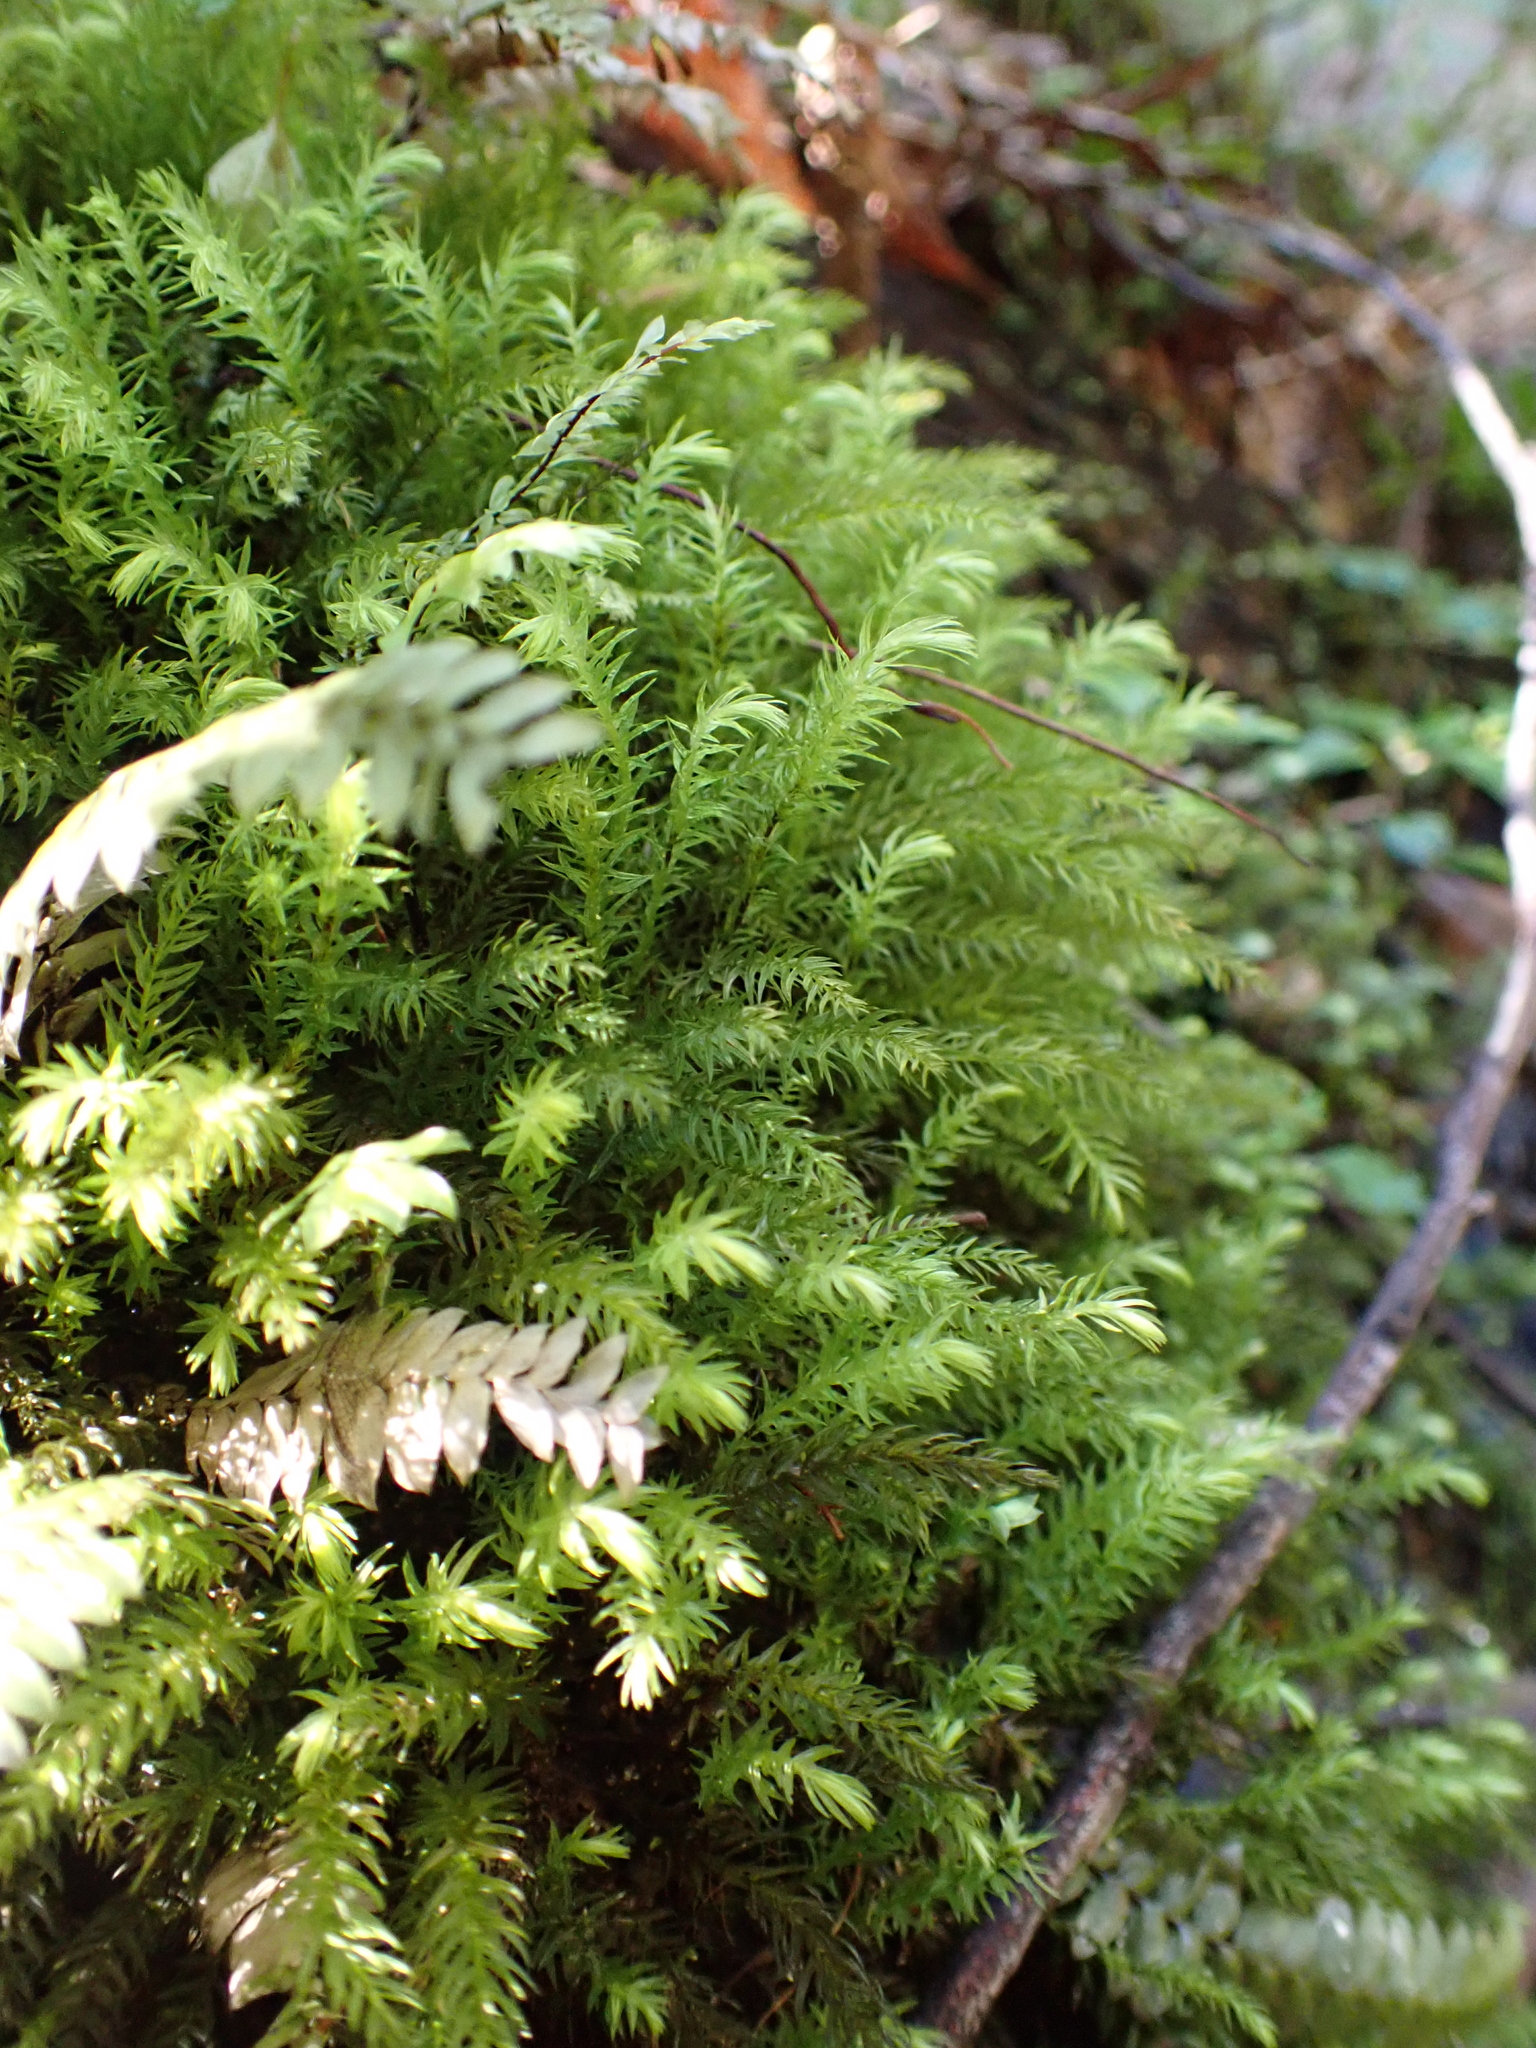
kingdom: Plantae
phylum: Bryophyta
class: Bryopsida
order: Aulacomniales
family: Aulacomniaceae
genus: Hymenodontopsis
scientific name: Hymenodontopsis mnioides
